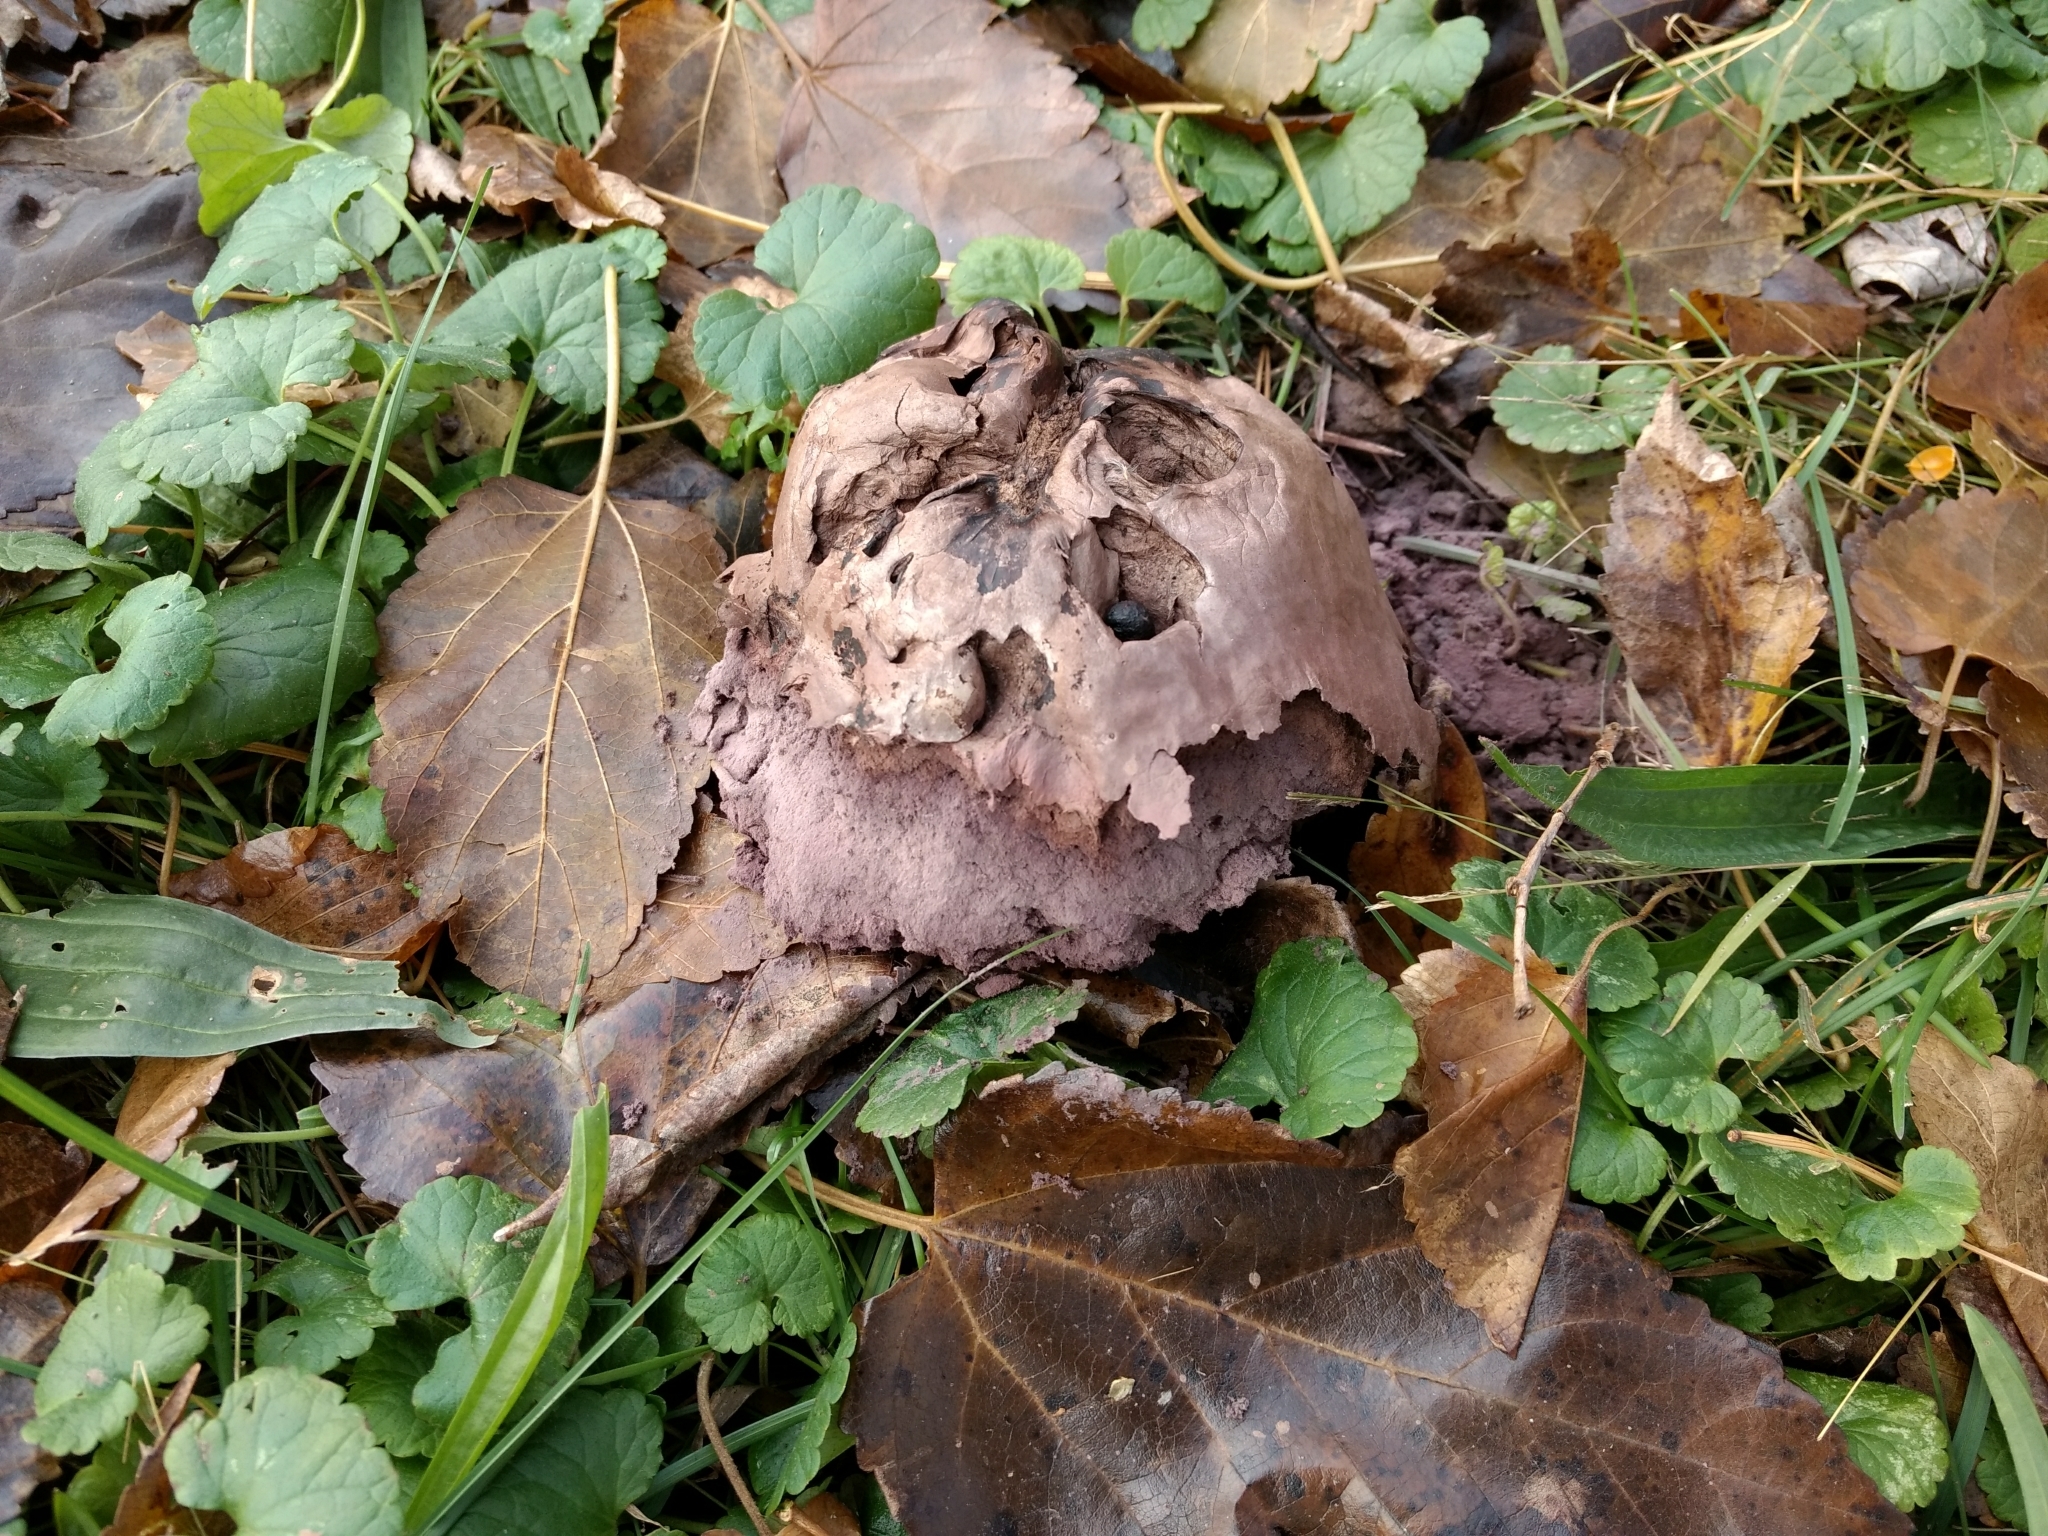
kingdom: Fungi
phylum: Basidiomycota
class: Agaricomycetes
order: Agaricales
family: Lycoperdaceae
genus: Calvatia
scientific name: Calvatia cyathiformis
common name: Purple-spored puffball
